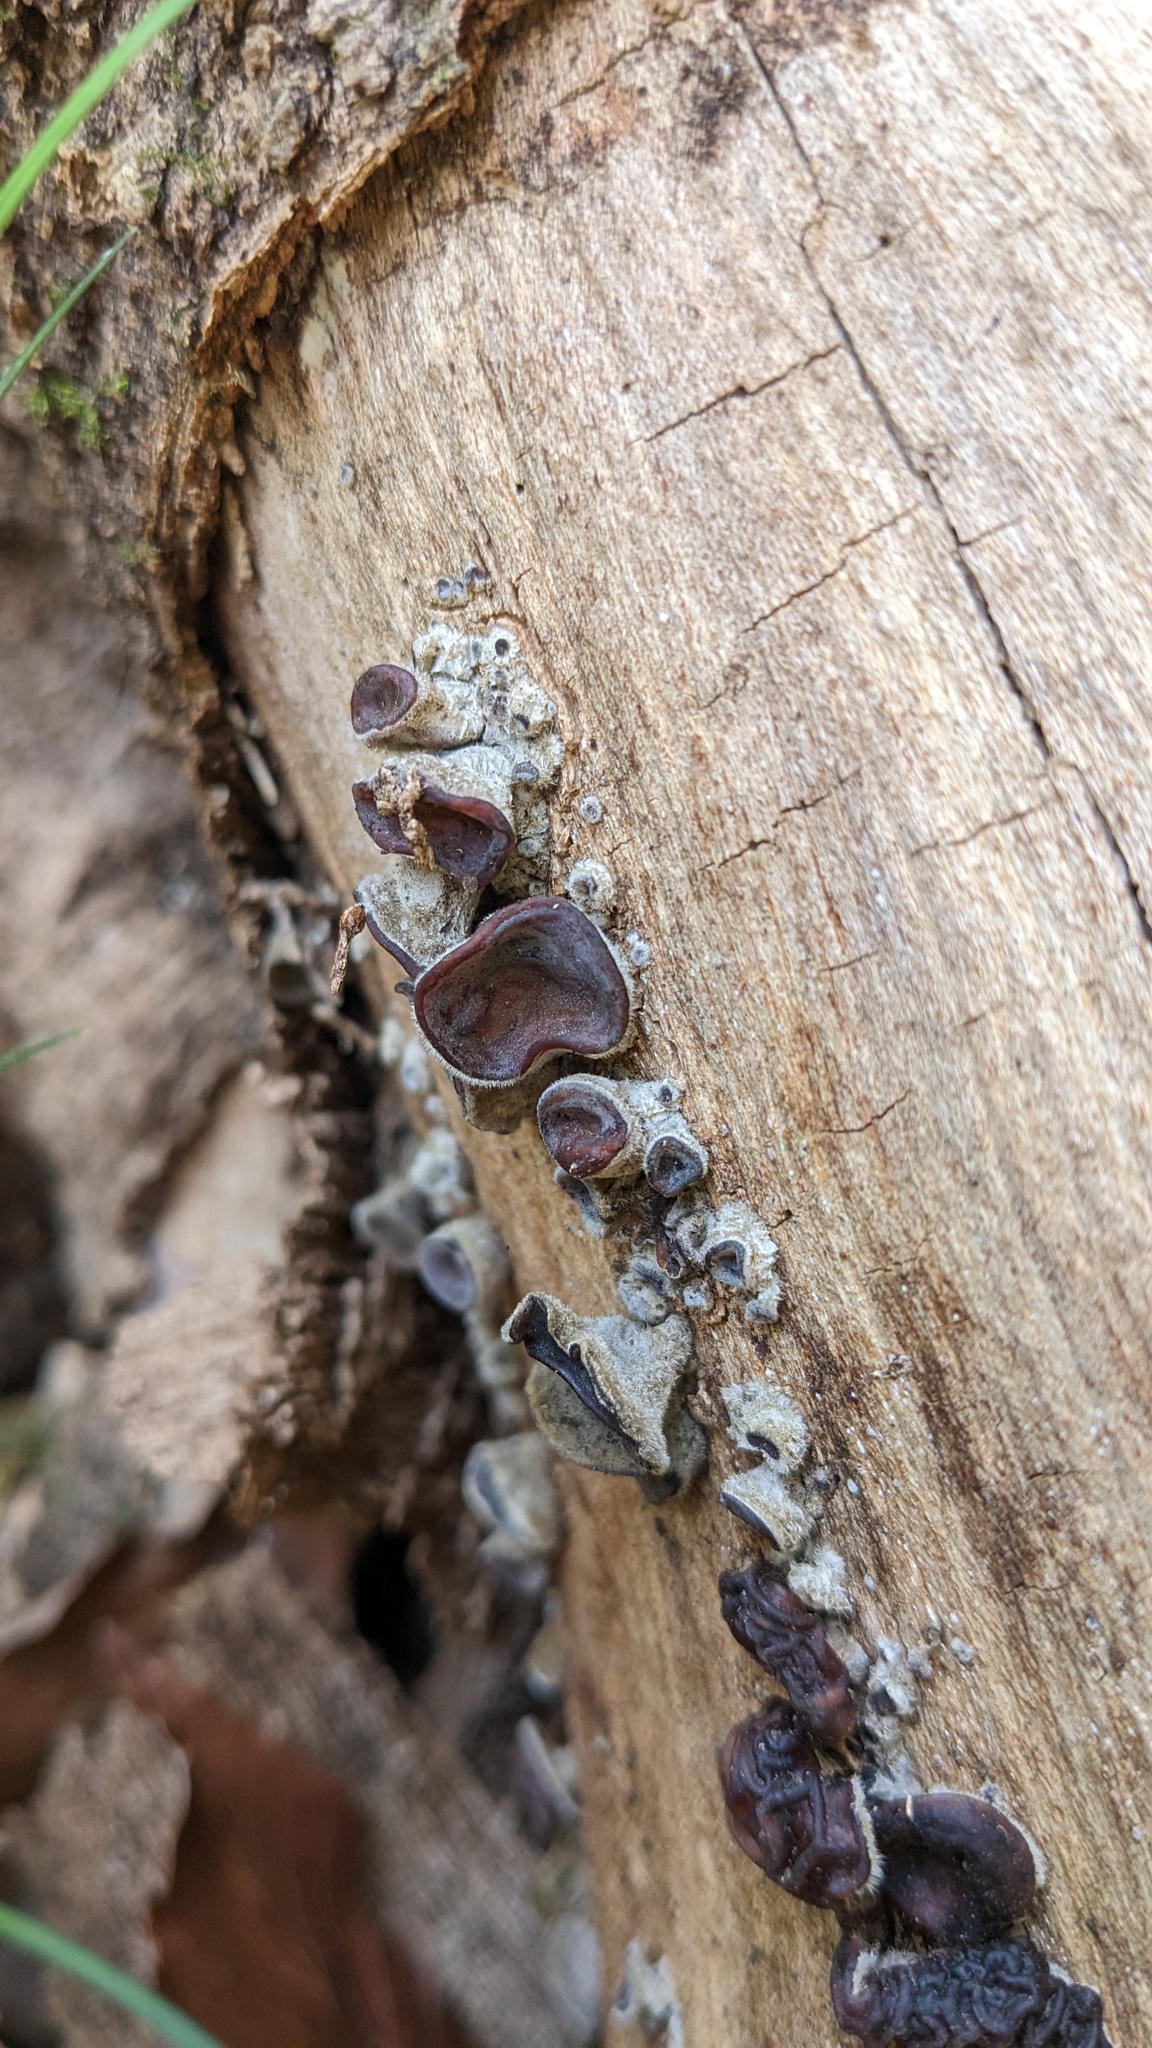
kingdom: Fungi
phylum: Basidiomycota
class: Agaricomycetes
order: Auriculariales
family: Auriculariaceae
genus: Auricularia
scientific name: Auricularia nigricans
